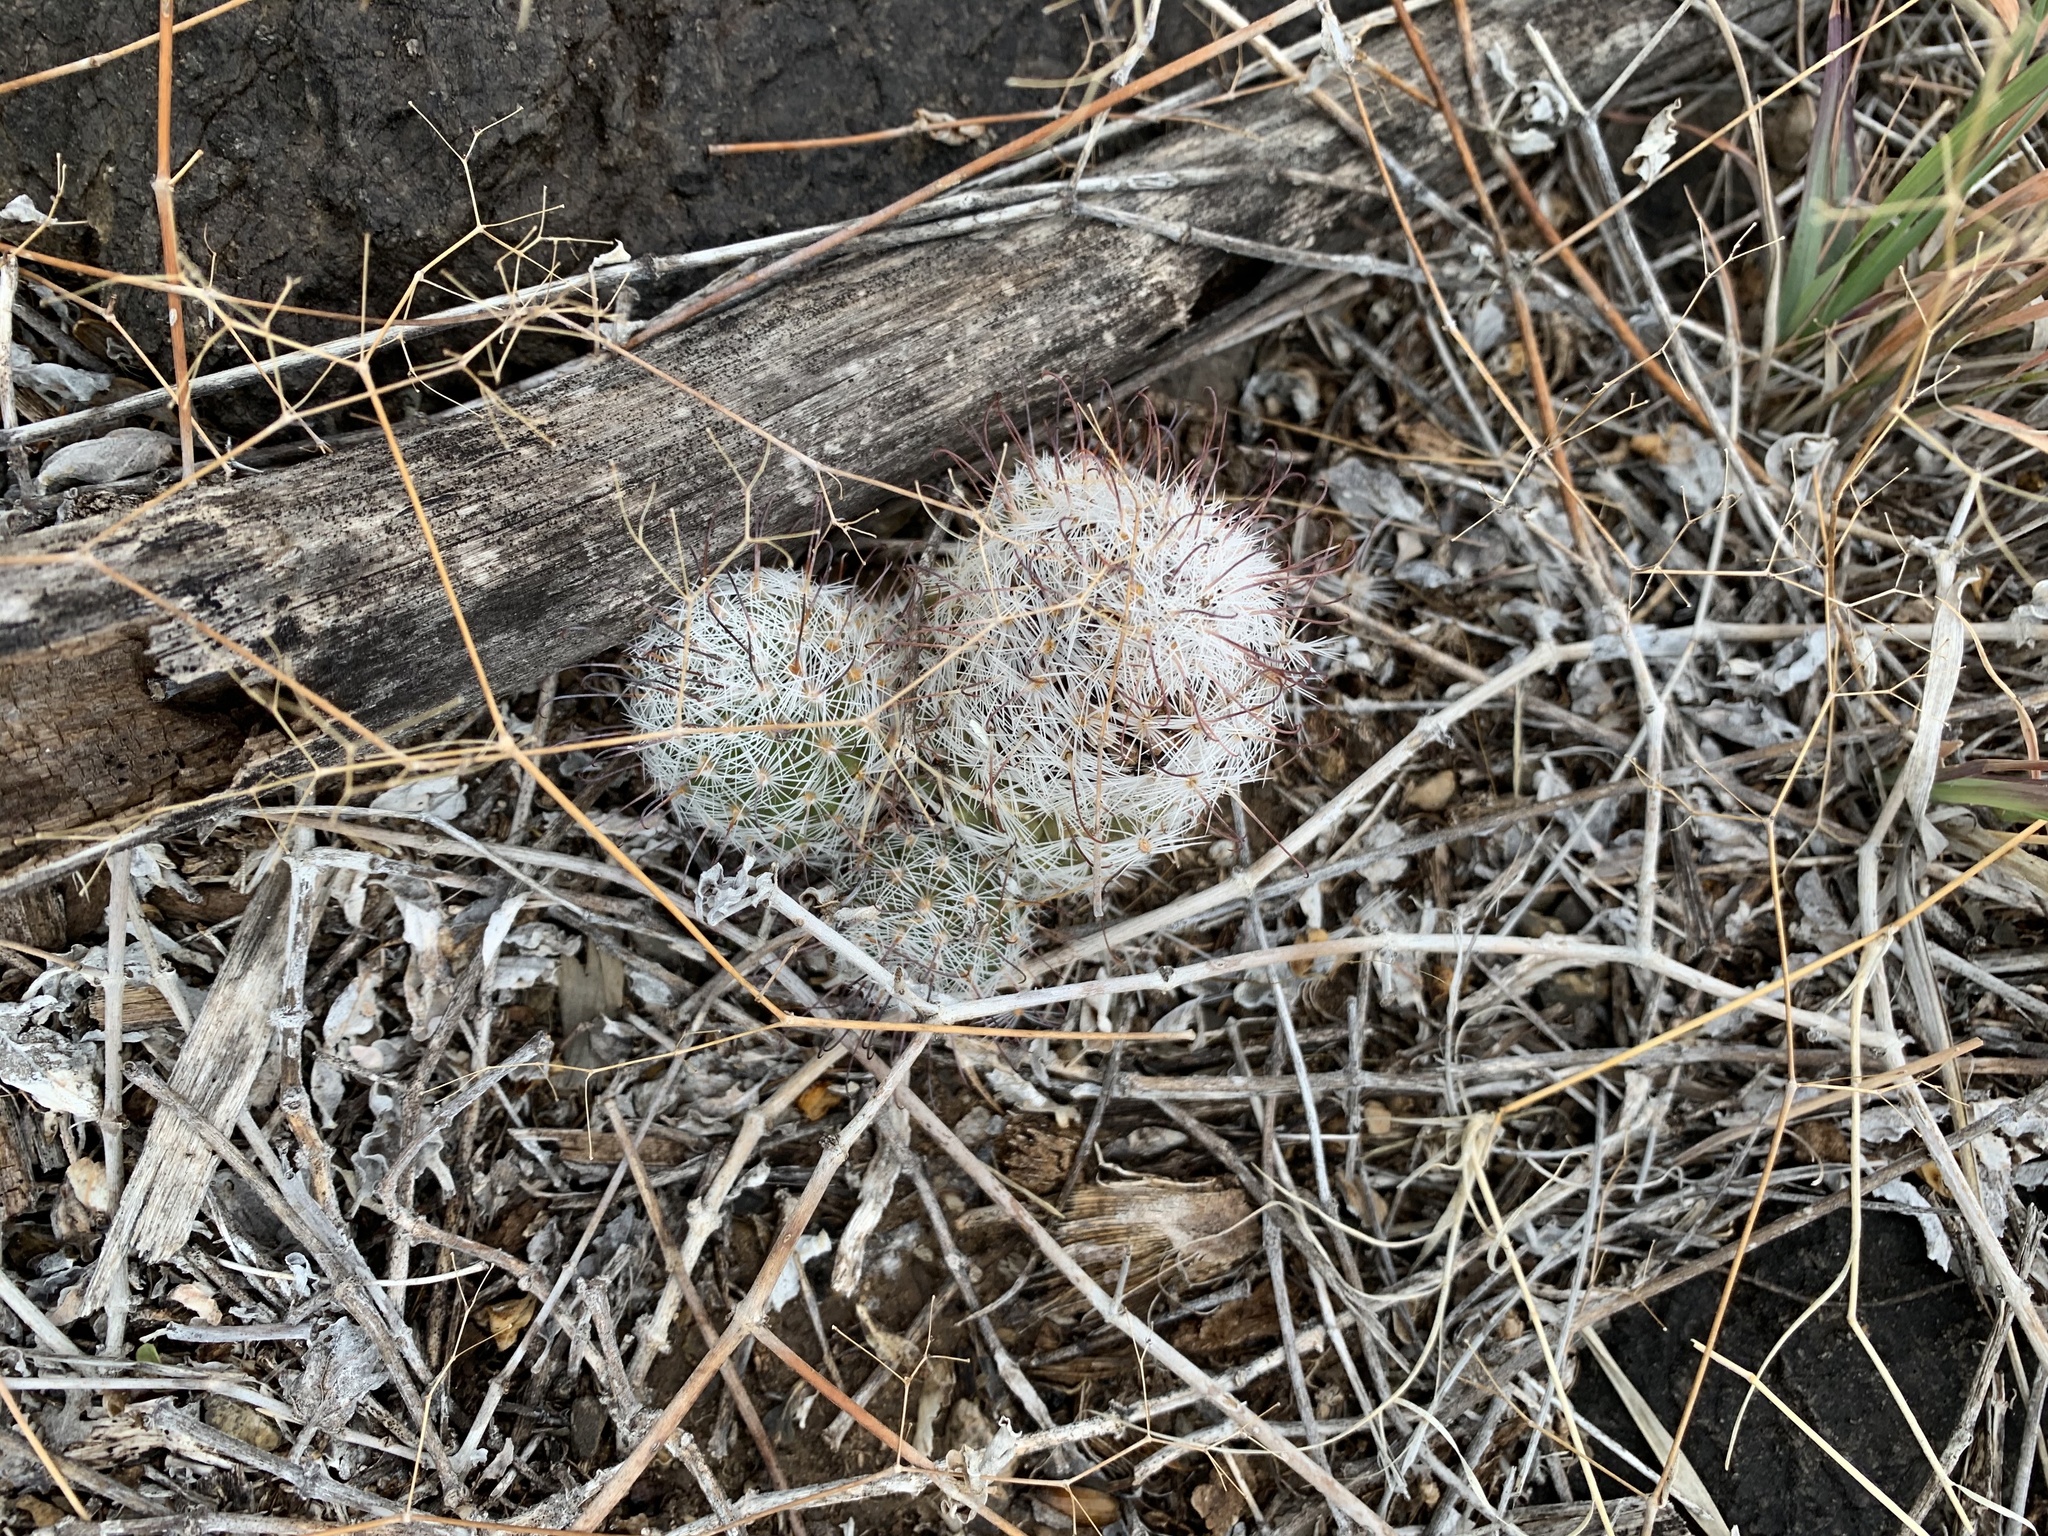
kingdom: Plantae
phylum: Tracheophyta
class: Magnoliopsida
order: Caryophyllales
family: Cactaceae
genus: Pelecyphora
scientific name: Pelecyphora tuberculosa
